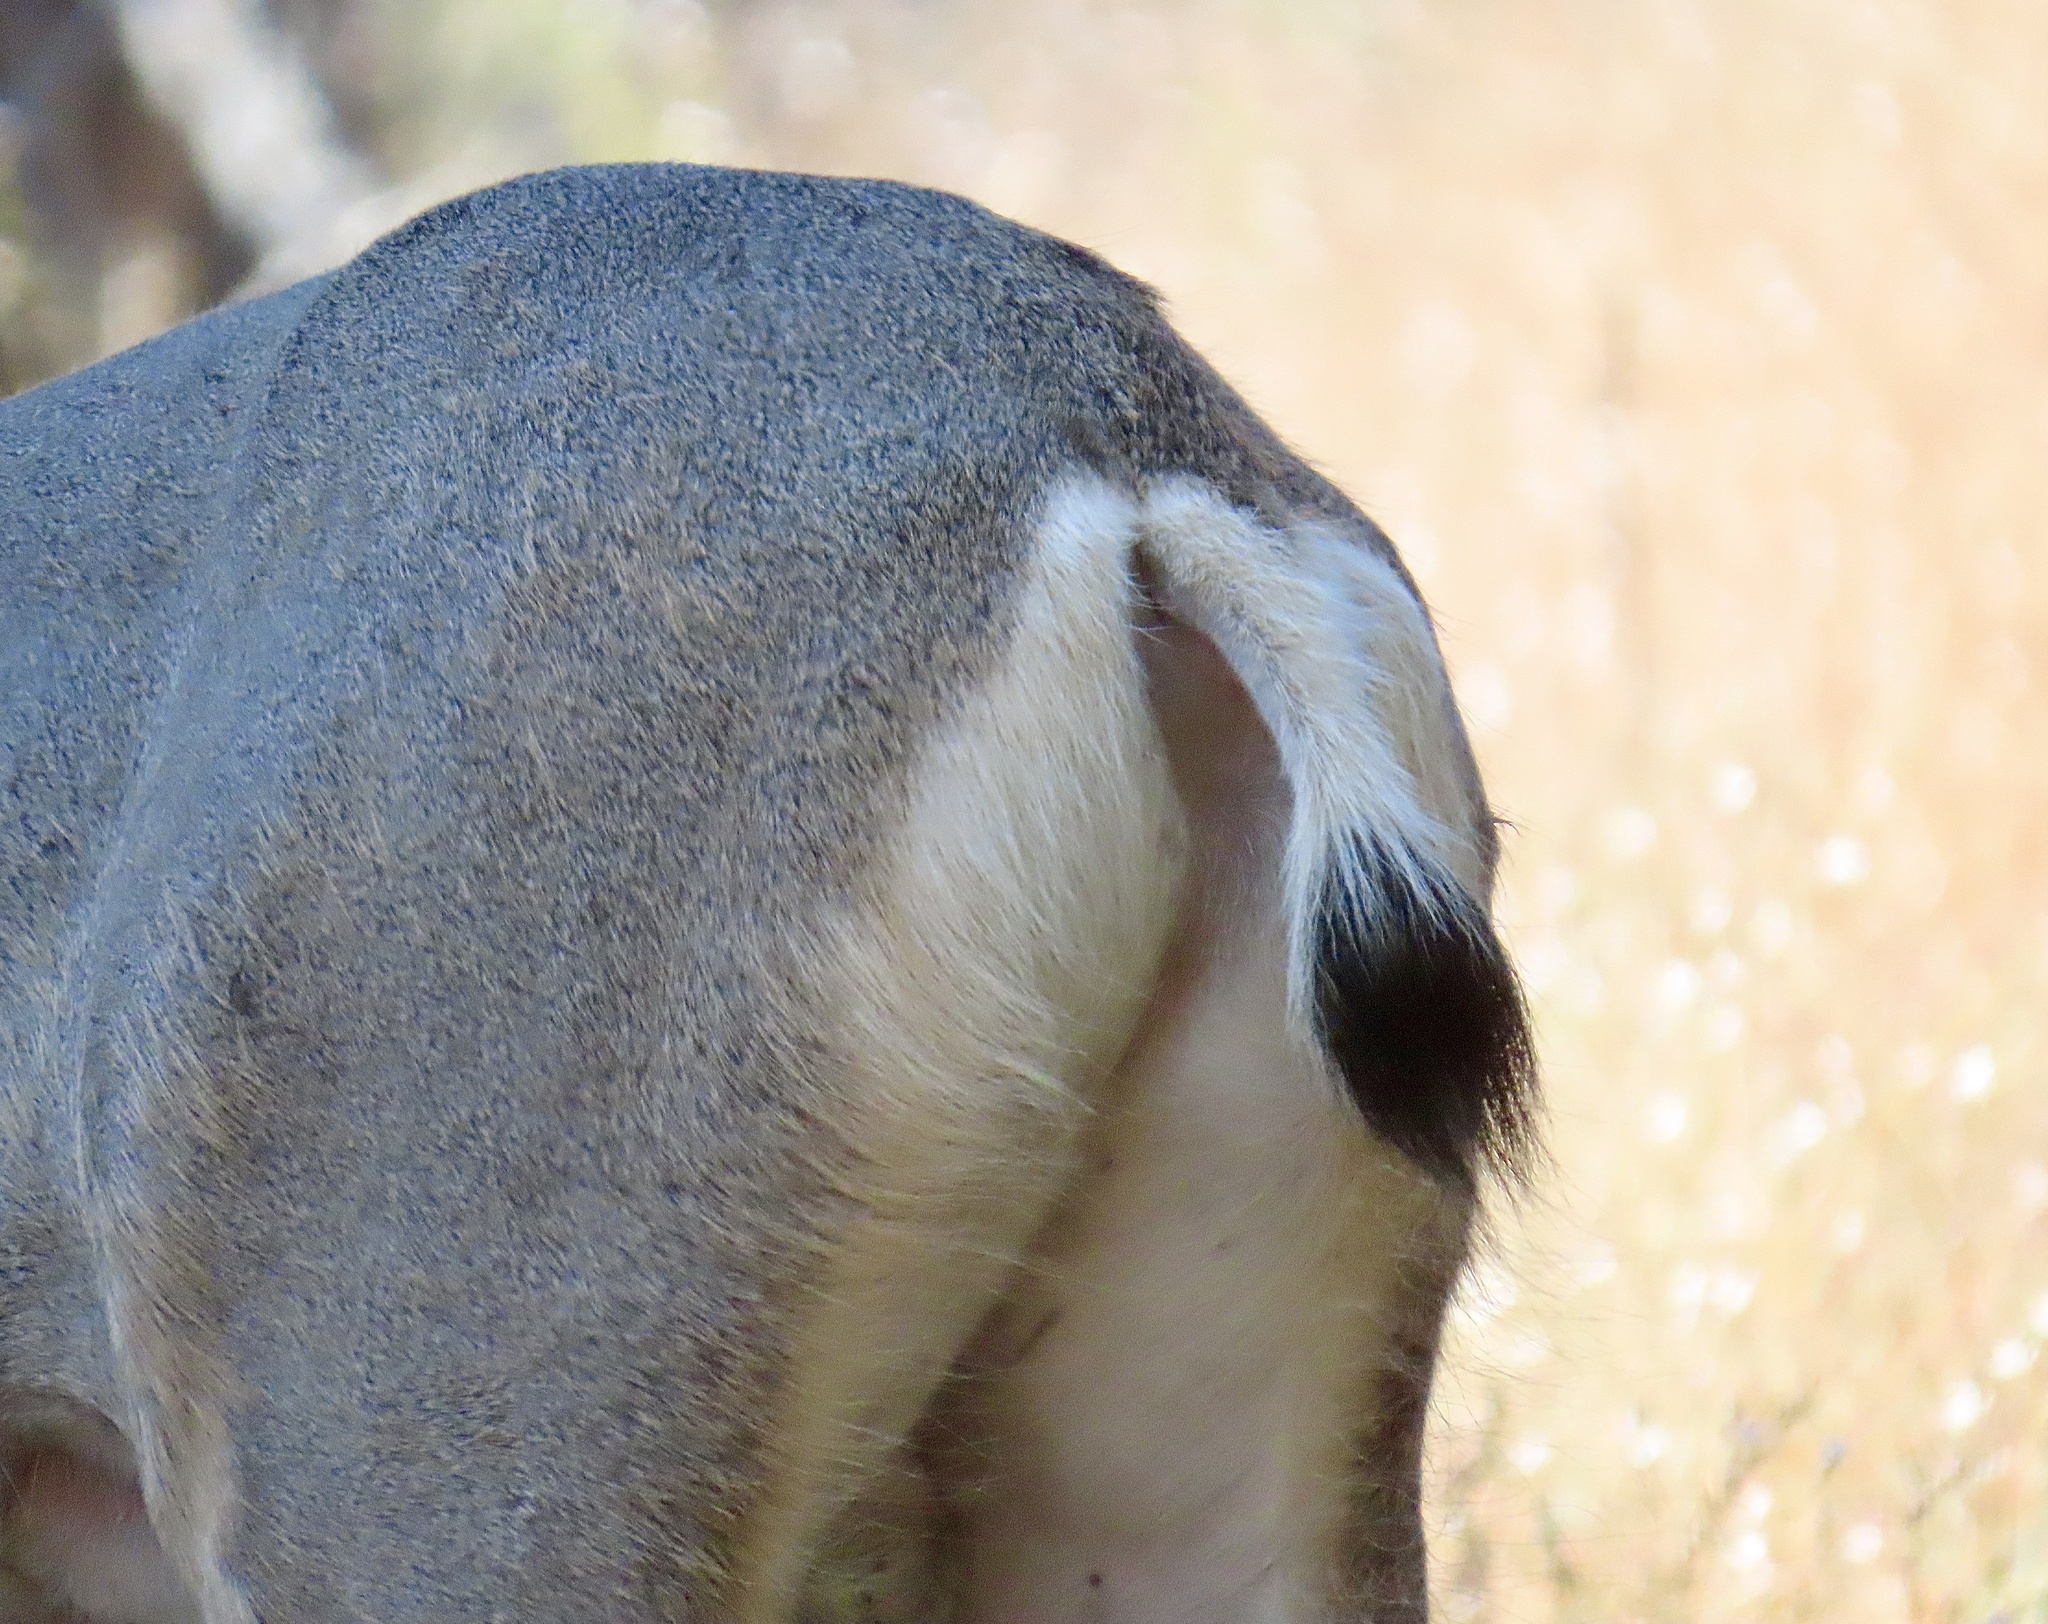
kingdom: Animalia
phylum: Chordata
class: Mammalia
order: Artiodactyla
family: Cervidae
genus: Odocoileus
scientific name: Odocoileus hemionus
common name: Mule deer
